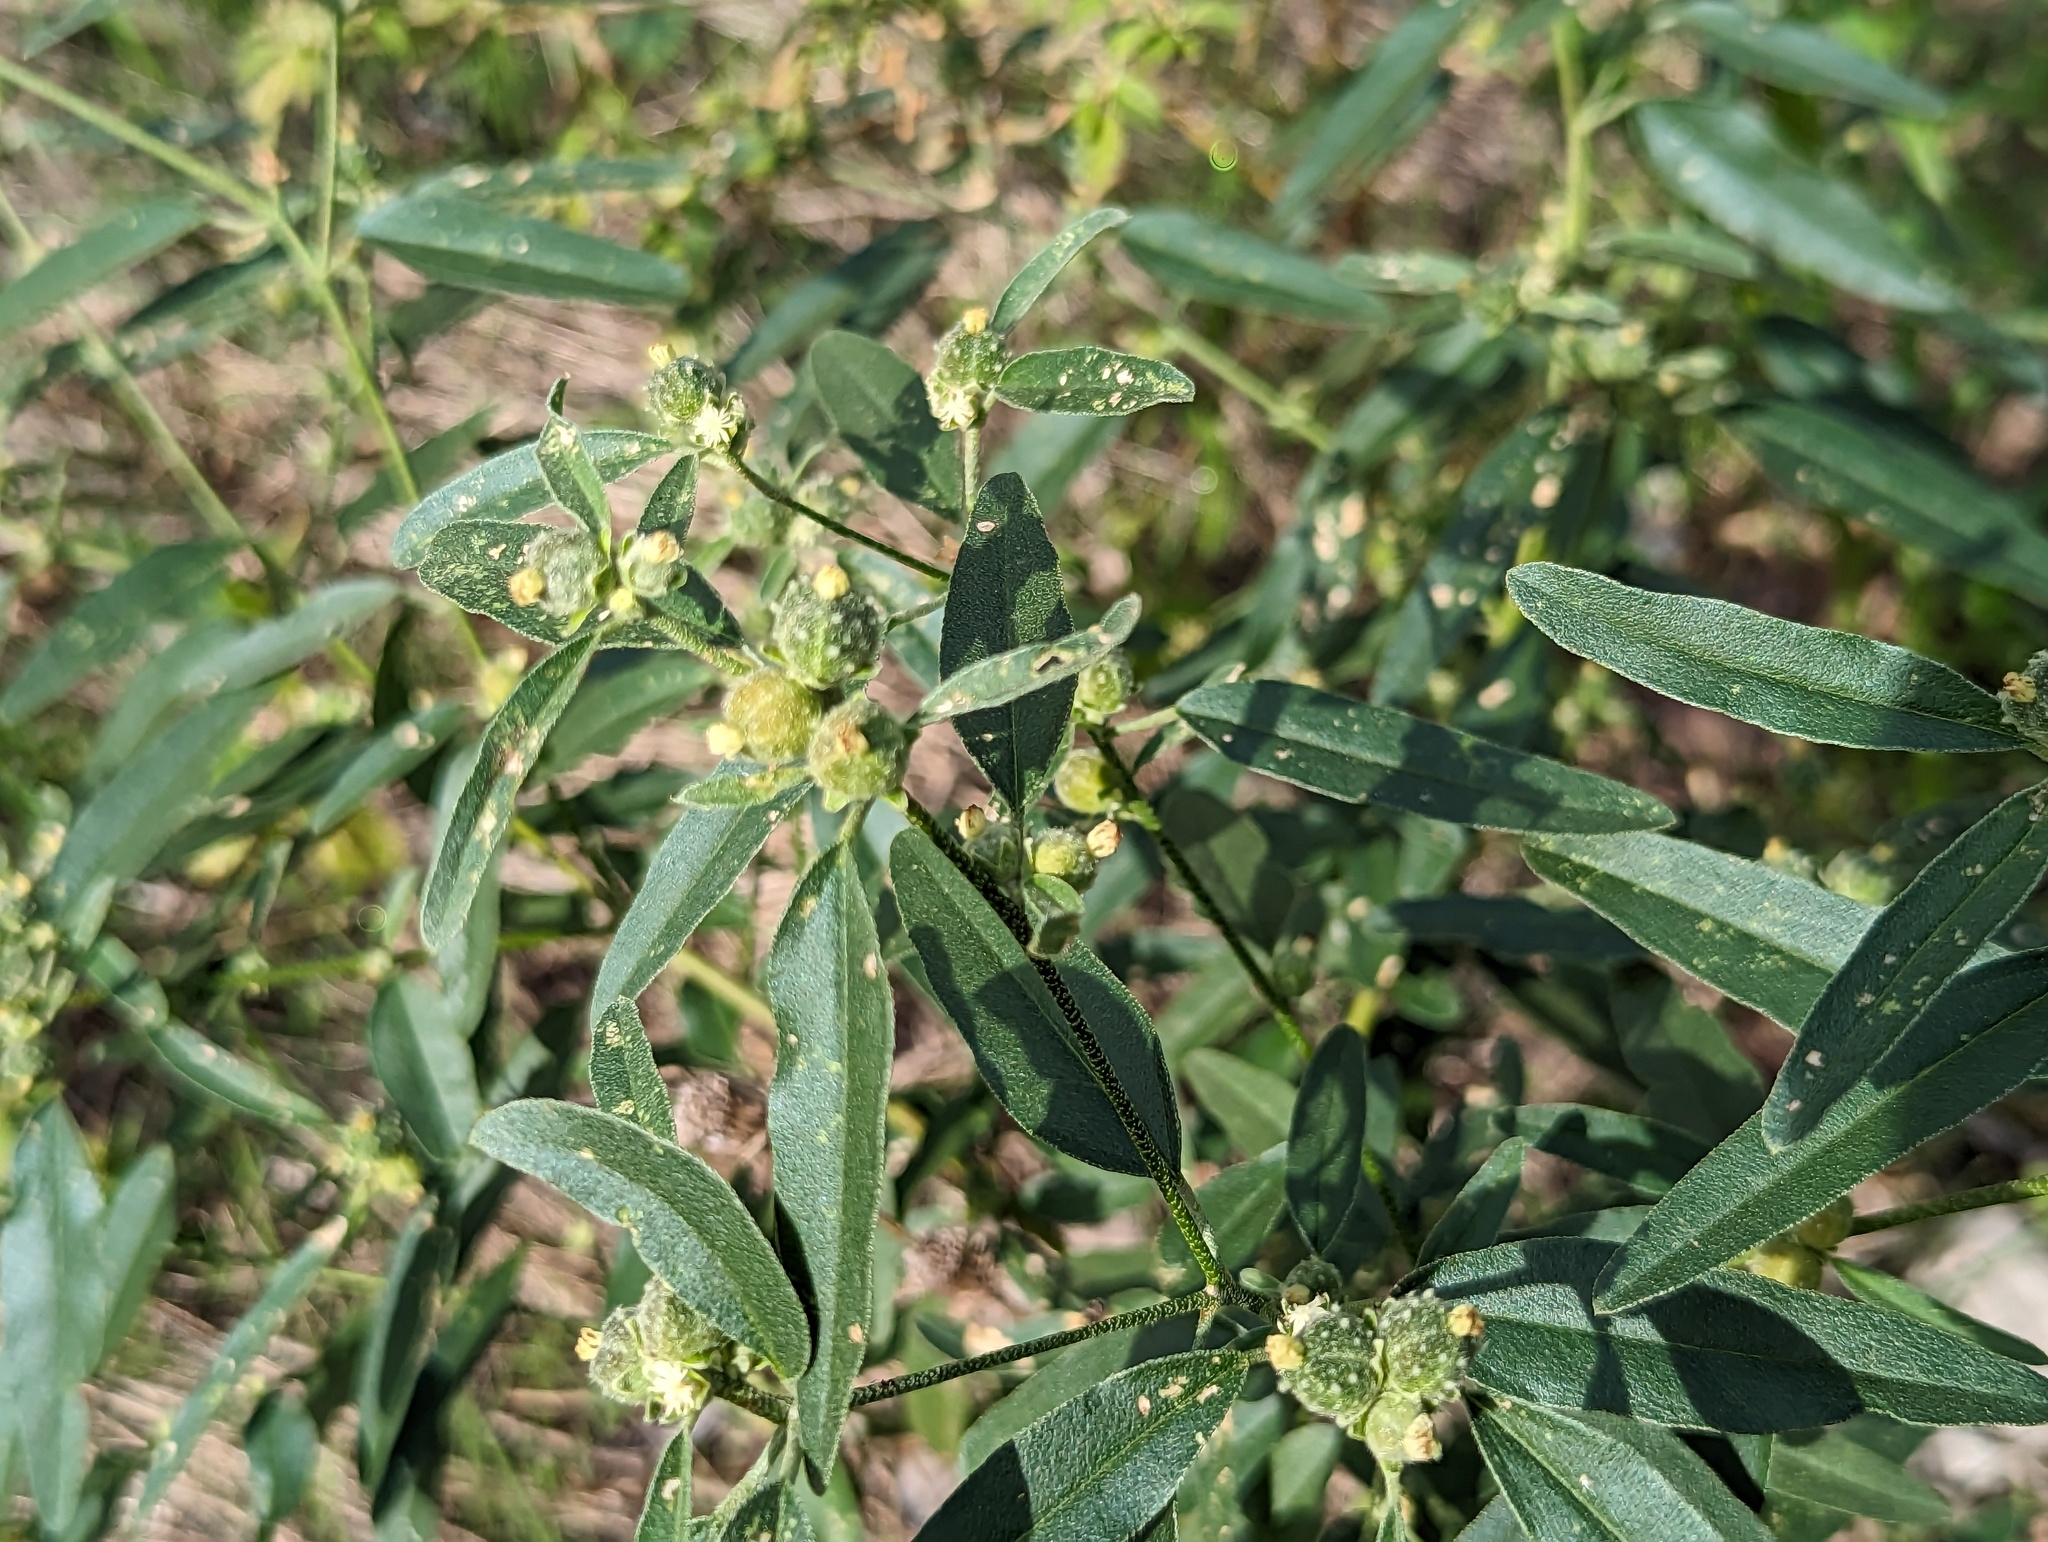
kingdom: Plantae
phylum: Tracheophyta
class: Magnoliopsida
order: Malpighiales
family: Euphorbiaceae
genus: Croton
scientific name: Croton texensis
